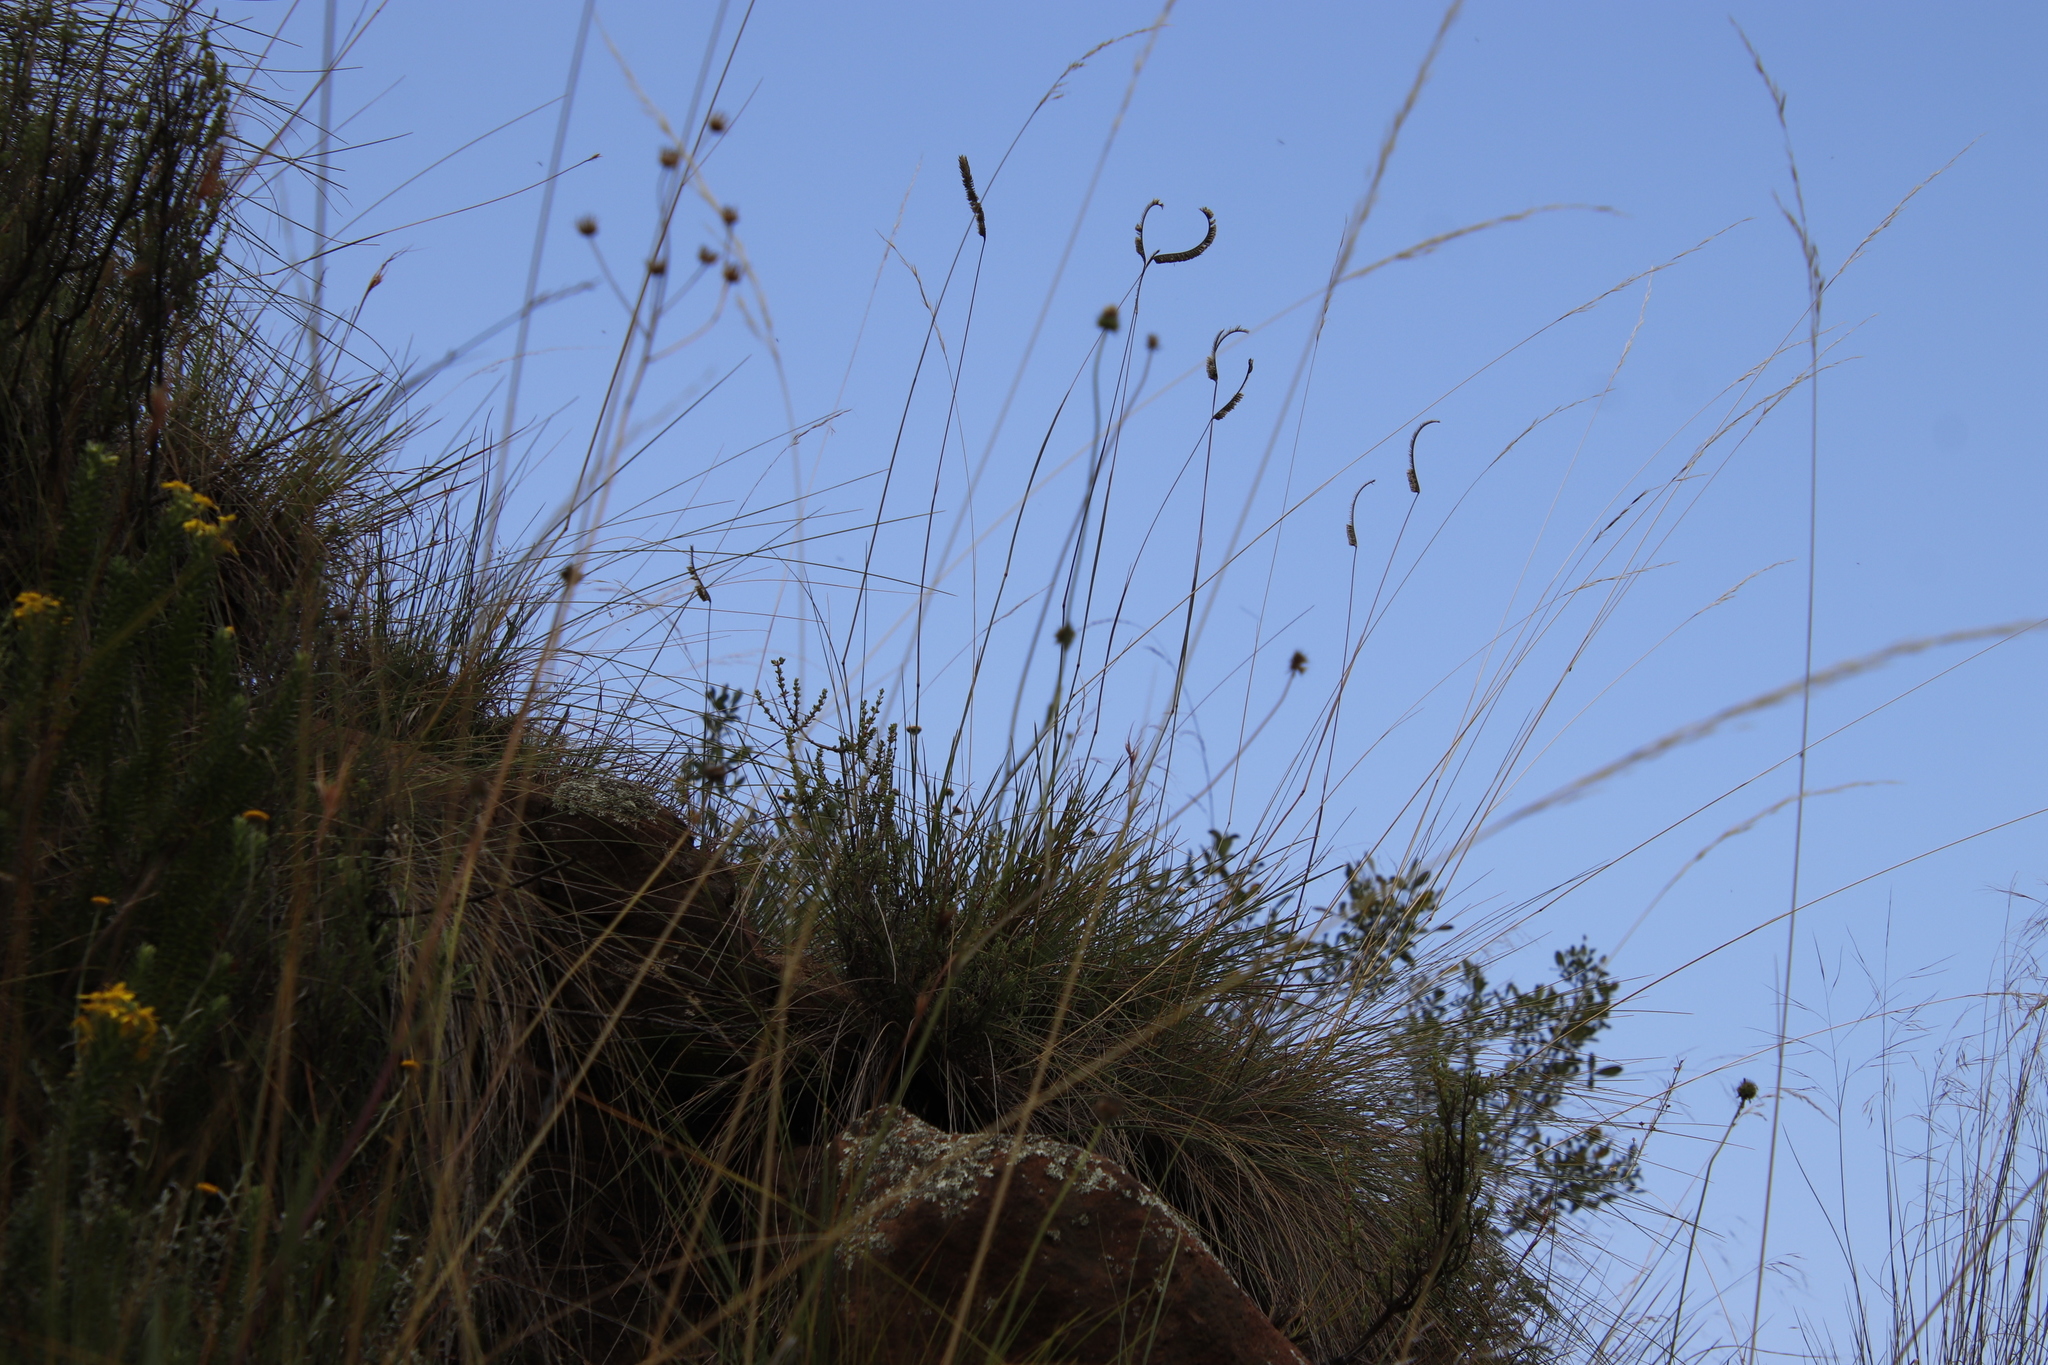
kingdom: Plantae
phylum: Tracheophyta
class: Liliopsida
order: Poales
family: Poaceae
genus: Harpochloa
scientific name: Harpochloa falx
